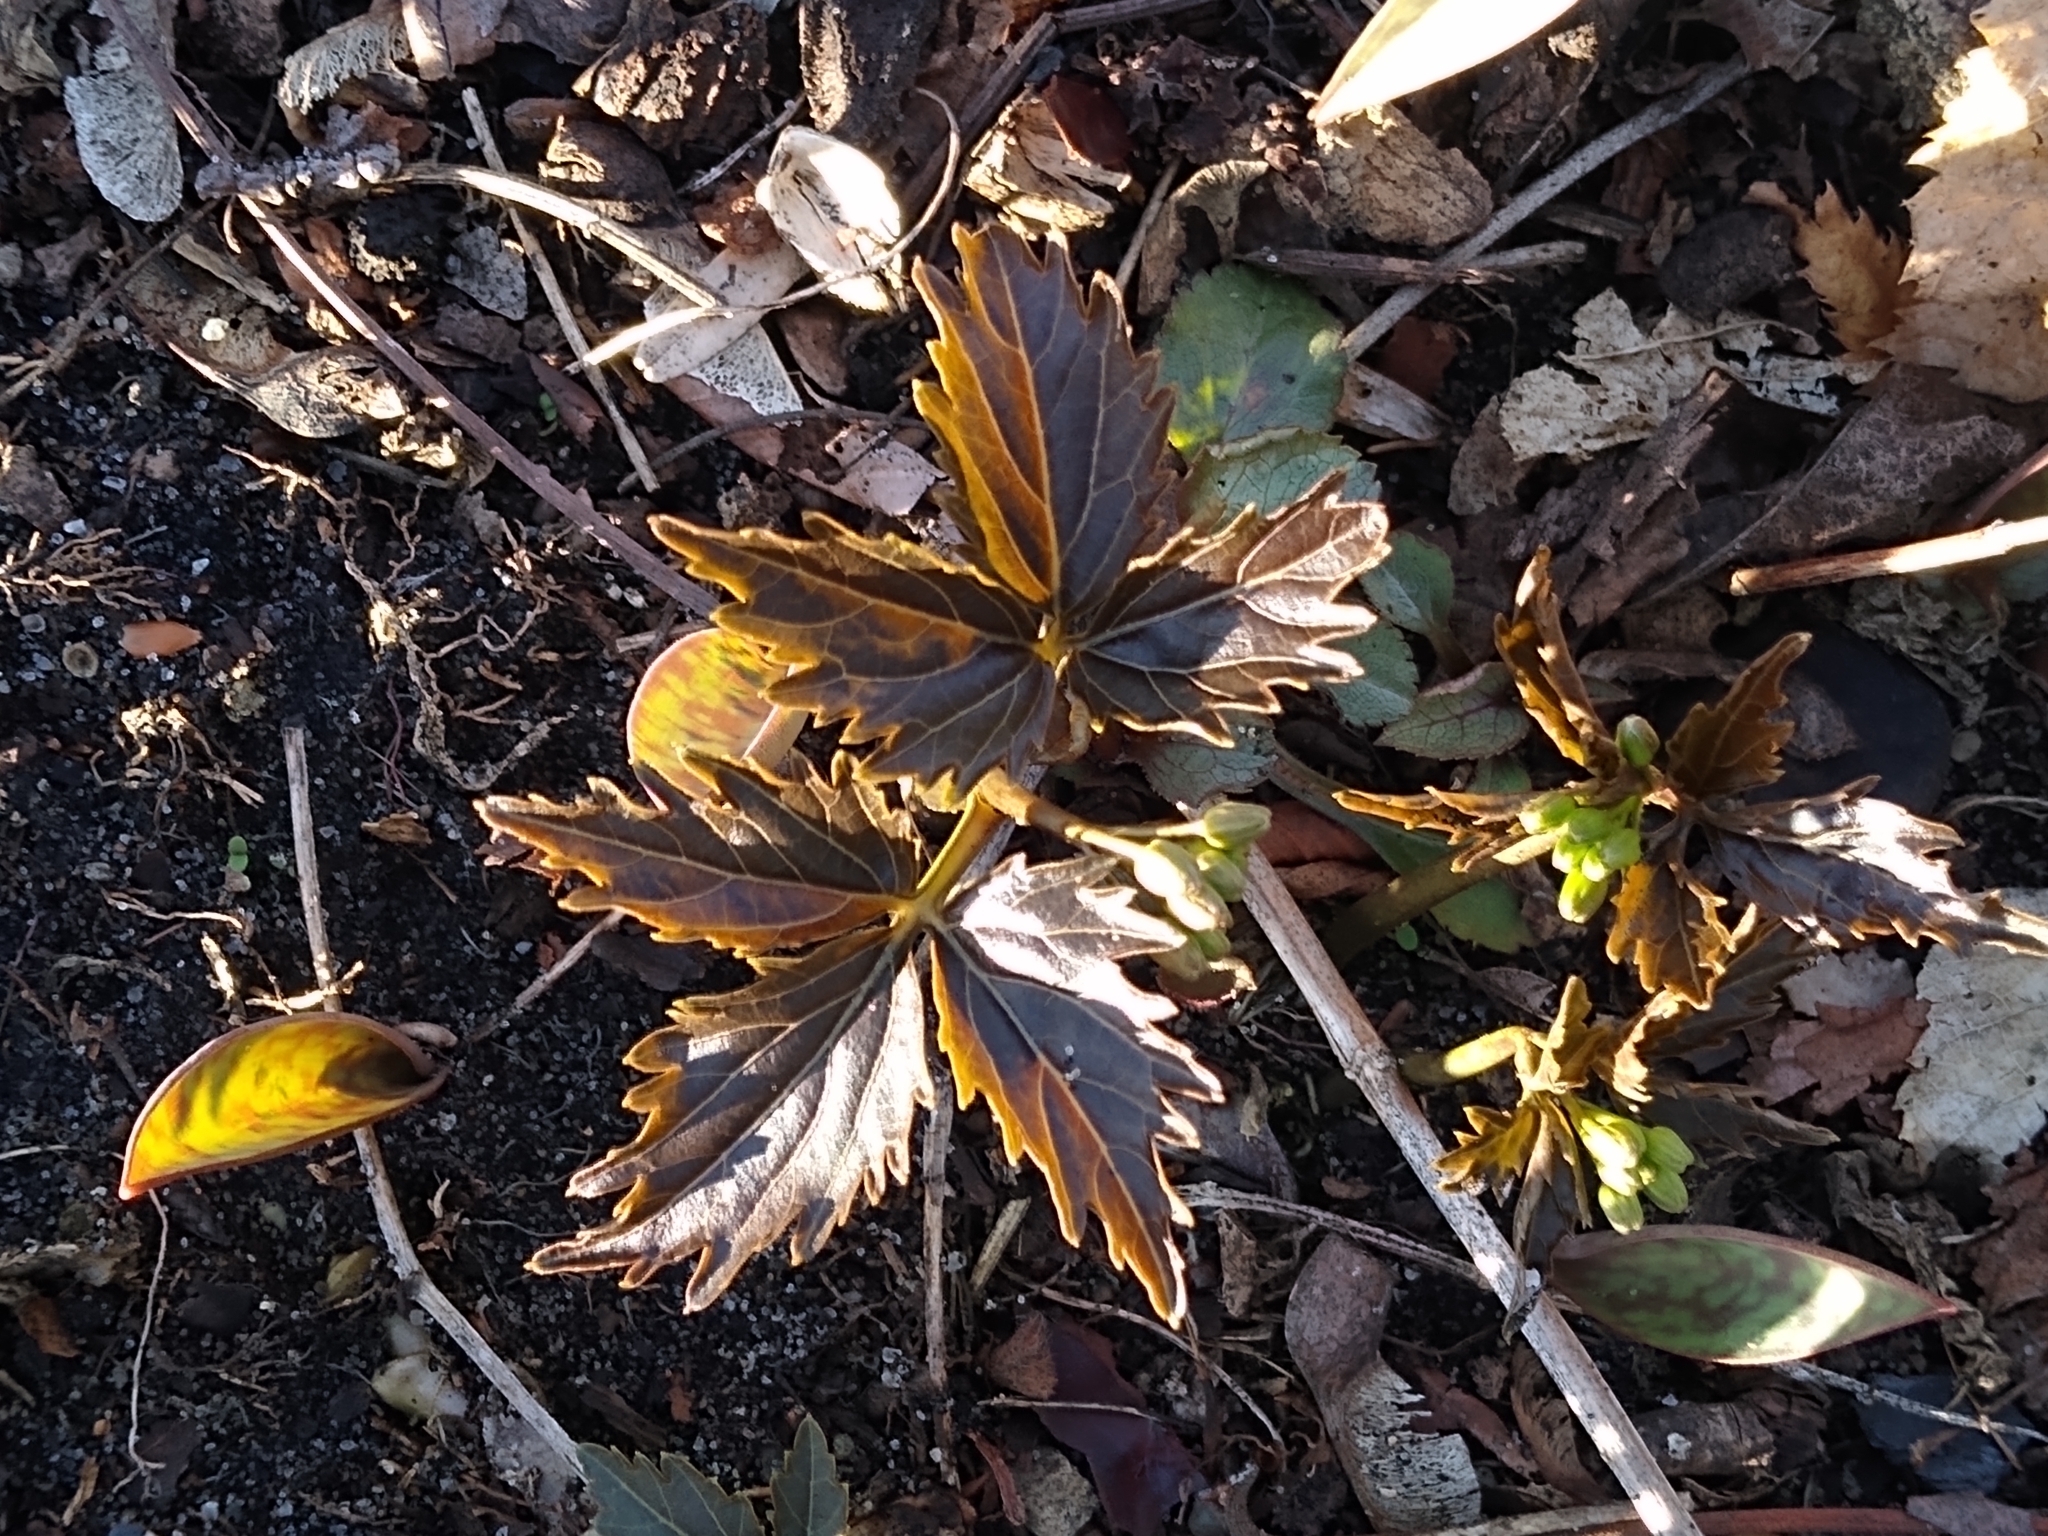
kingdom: Plantae
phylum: Tracheophyta
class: Magnoliopsida
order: Brassicales
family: Brassicaceae
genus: Cardamine
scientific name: Cardamine diphylla
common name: Broad-leaved toothwort
